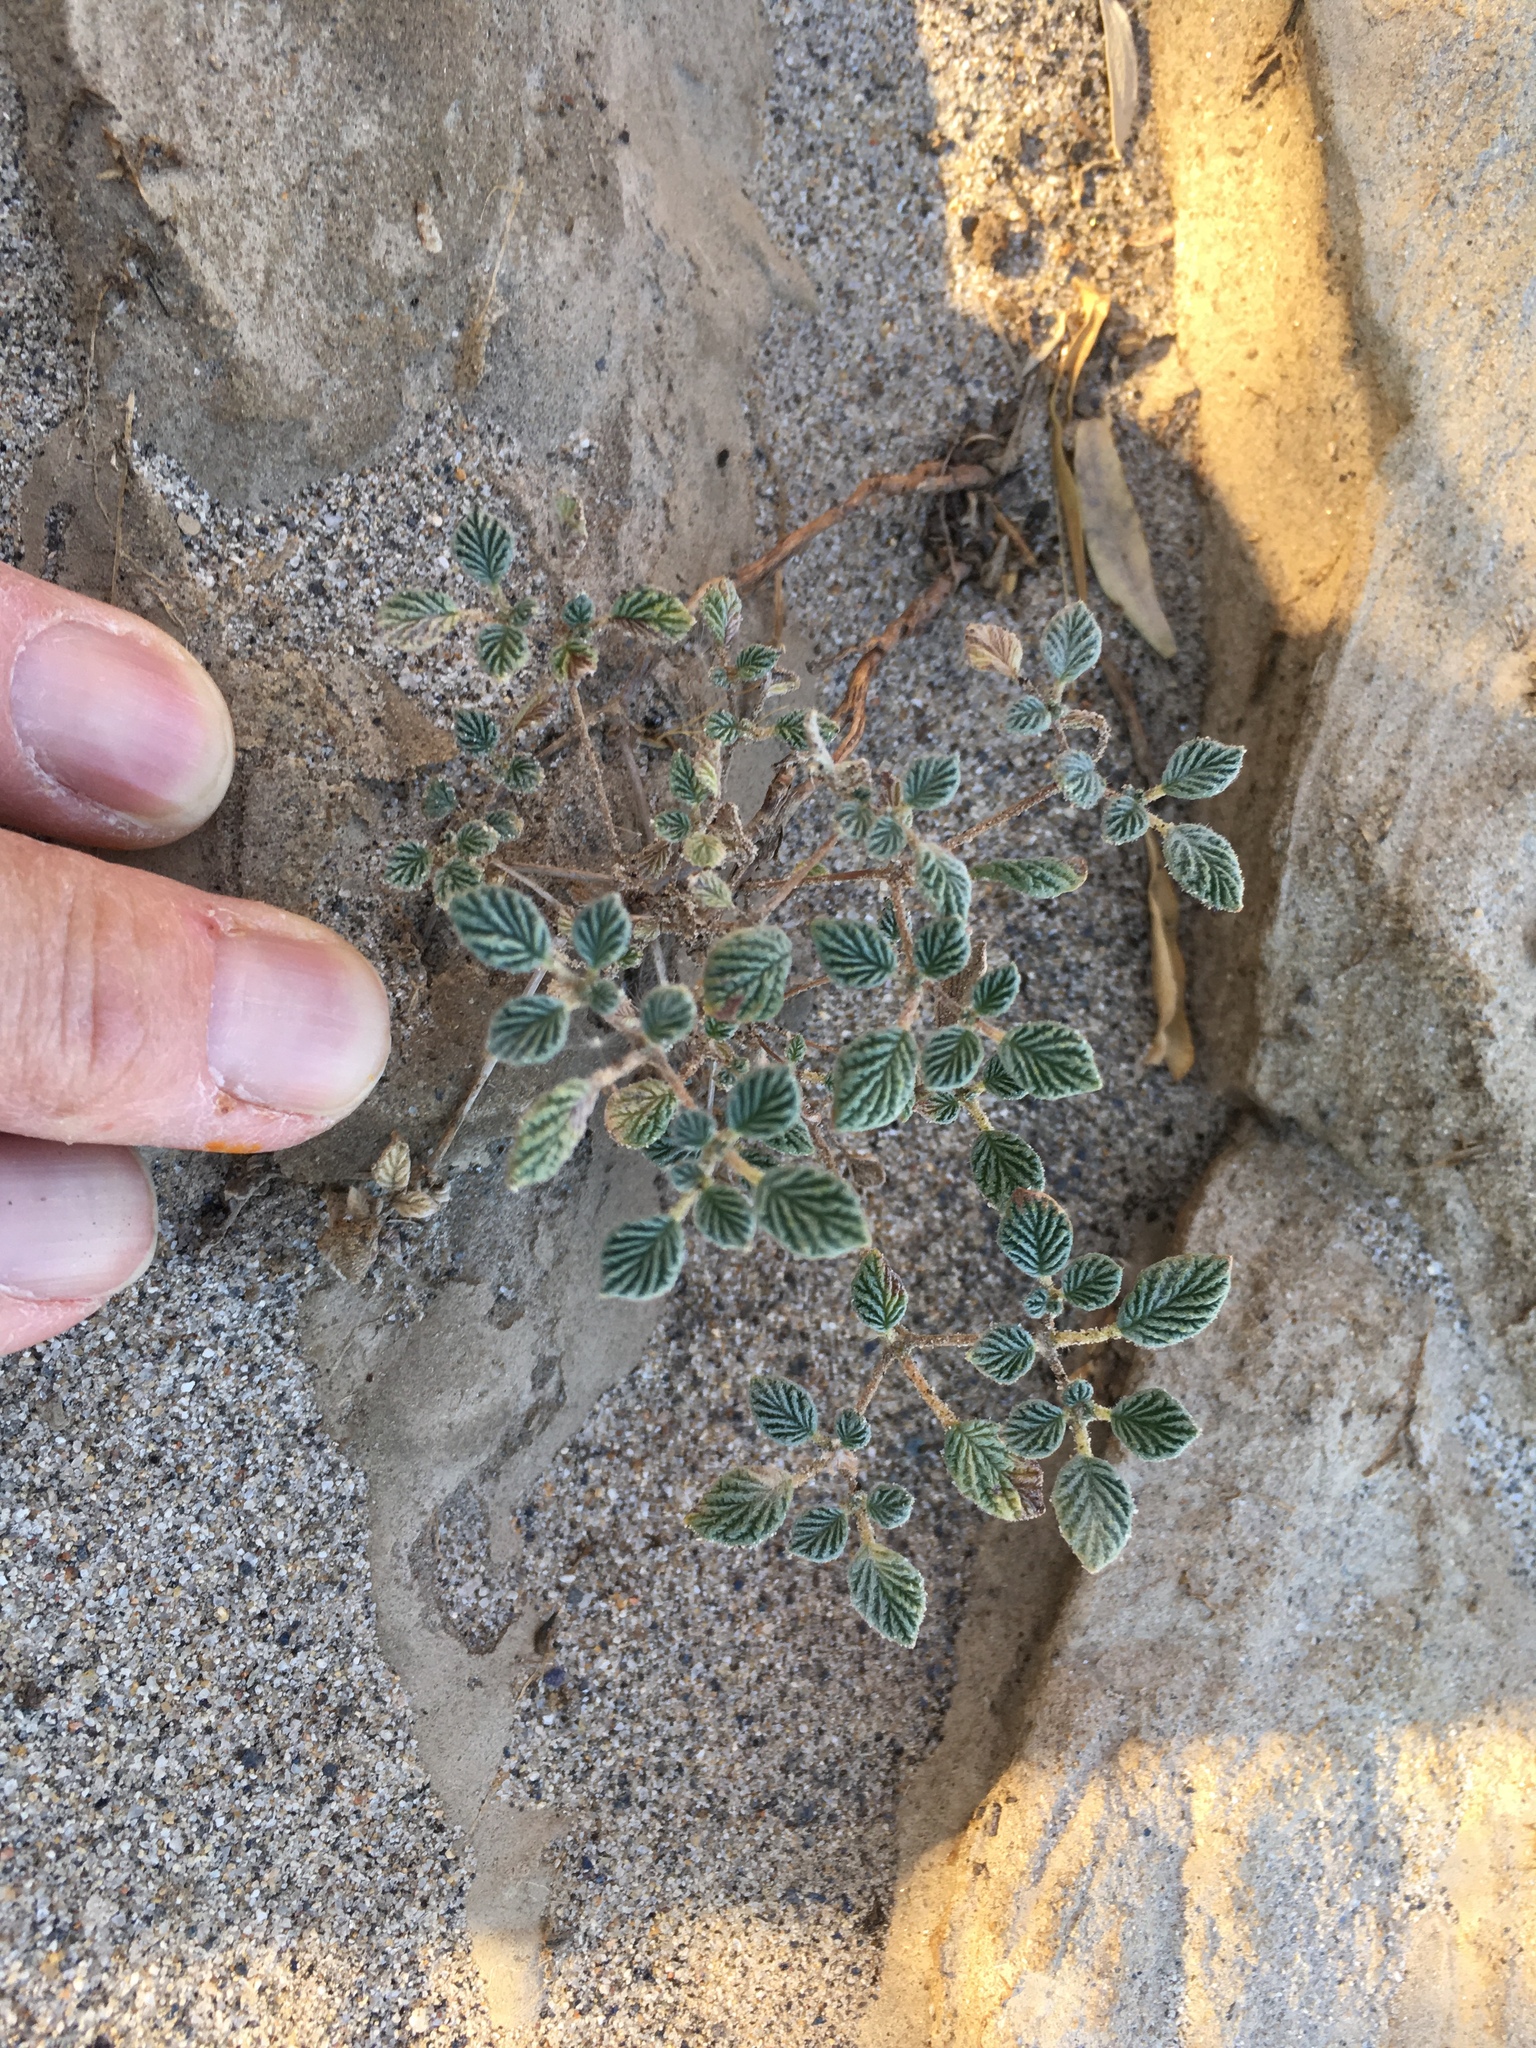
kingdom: Plantae
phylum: Tracheophyta
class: Magnoliopsida
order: Boraginales
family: Ehretiaceae
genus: Tiquilia
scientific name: Tiquilia plicata
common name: Fan-leaf tiquilia
